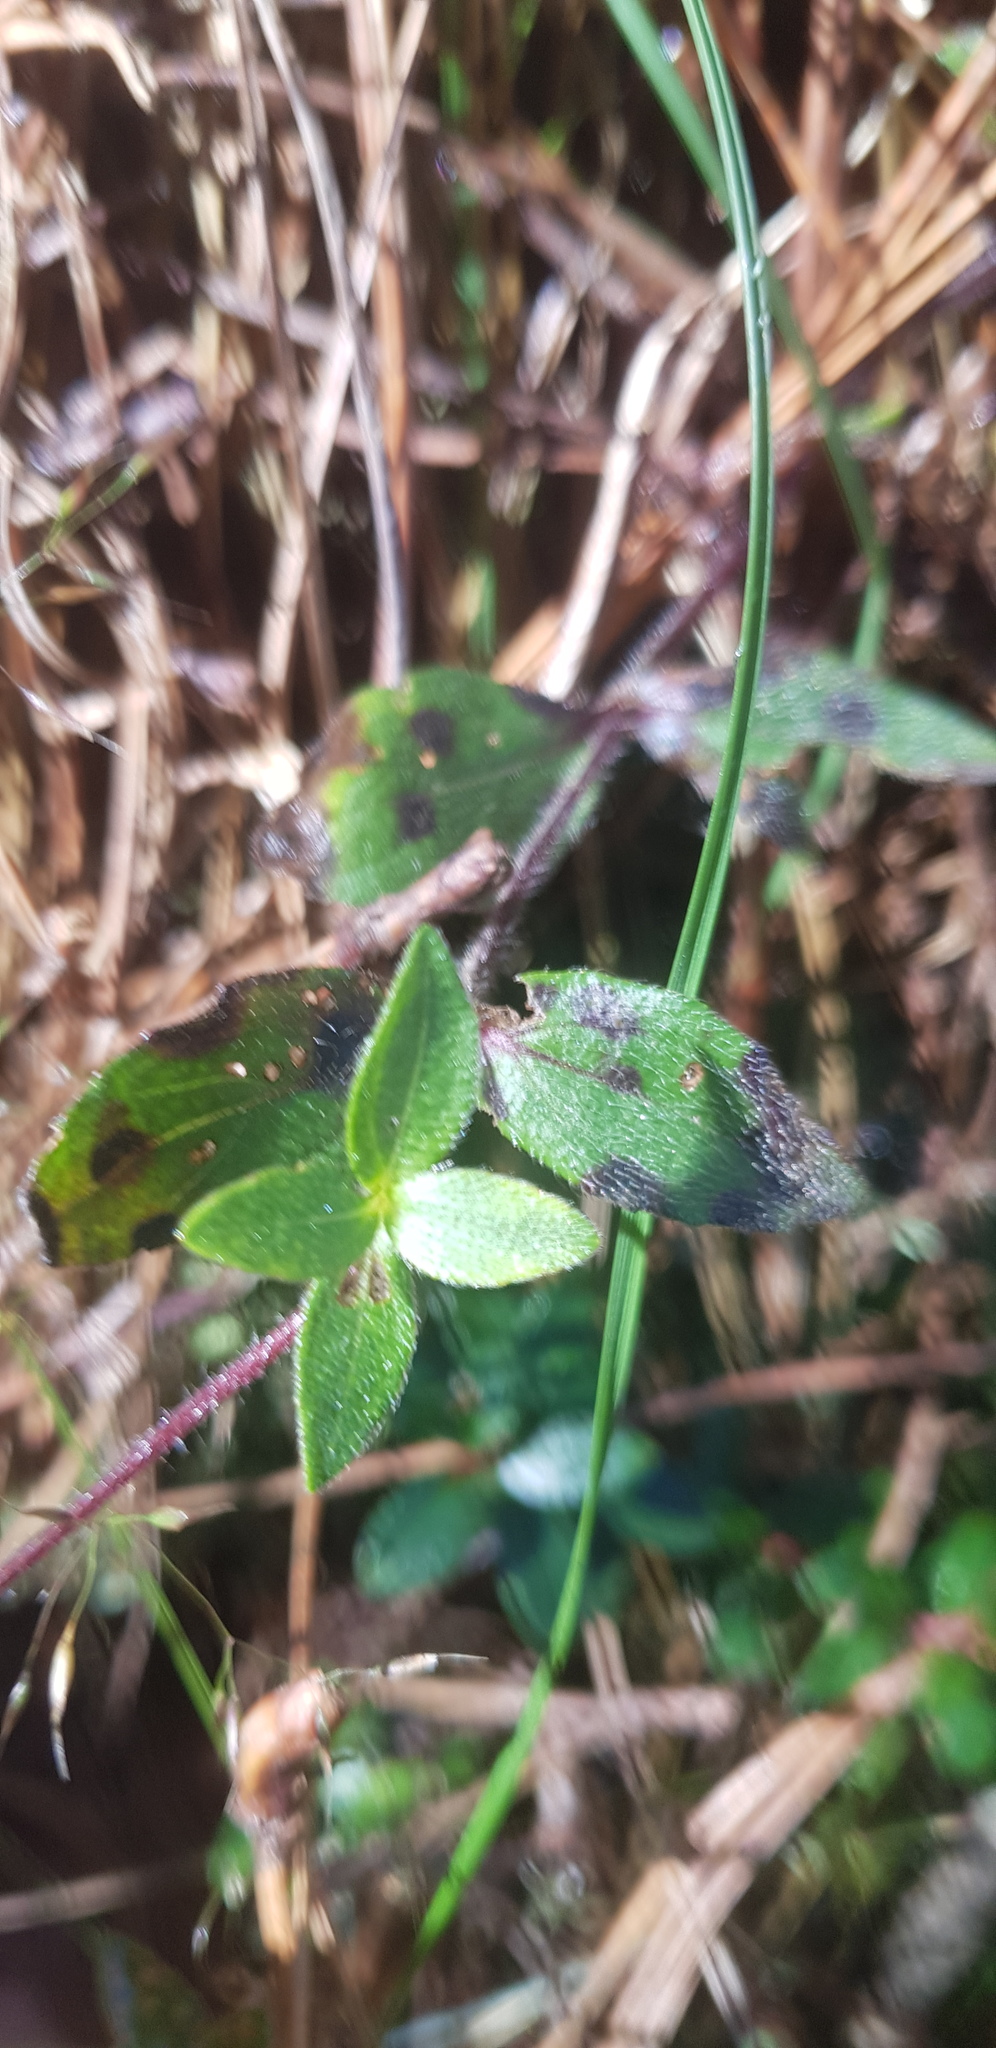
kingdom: Plantae
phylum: Tracheophyta
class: Magnoliopsida
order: Asterales
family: Asteraceae
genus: Melampodium
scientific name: Melampodium montanum
